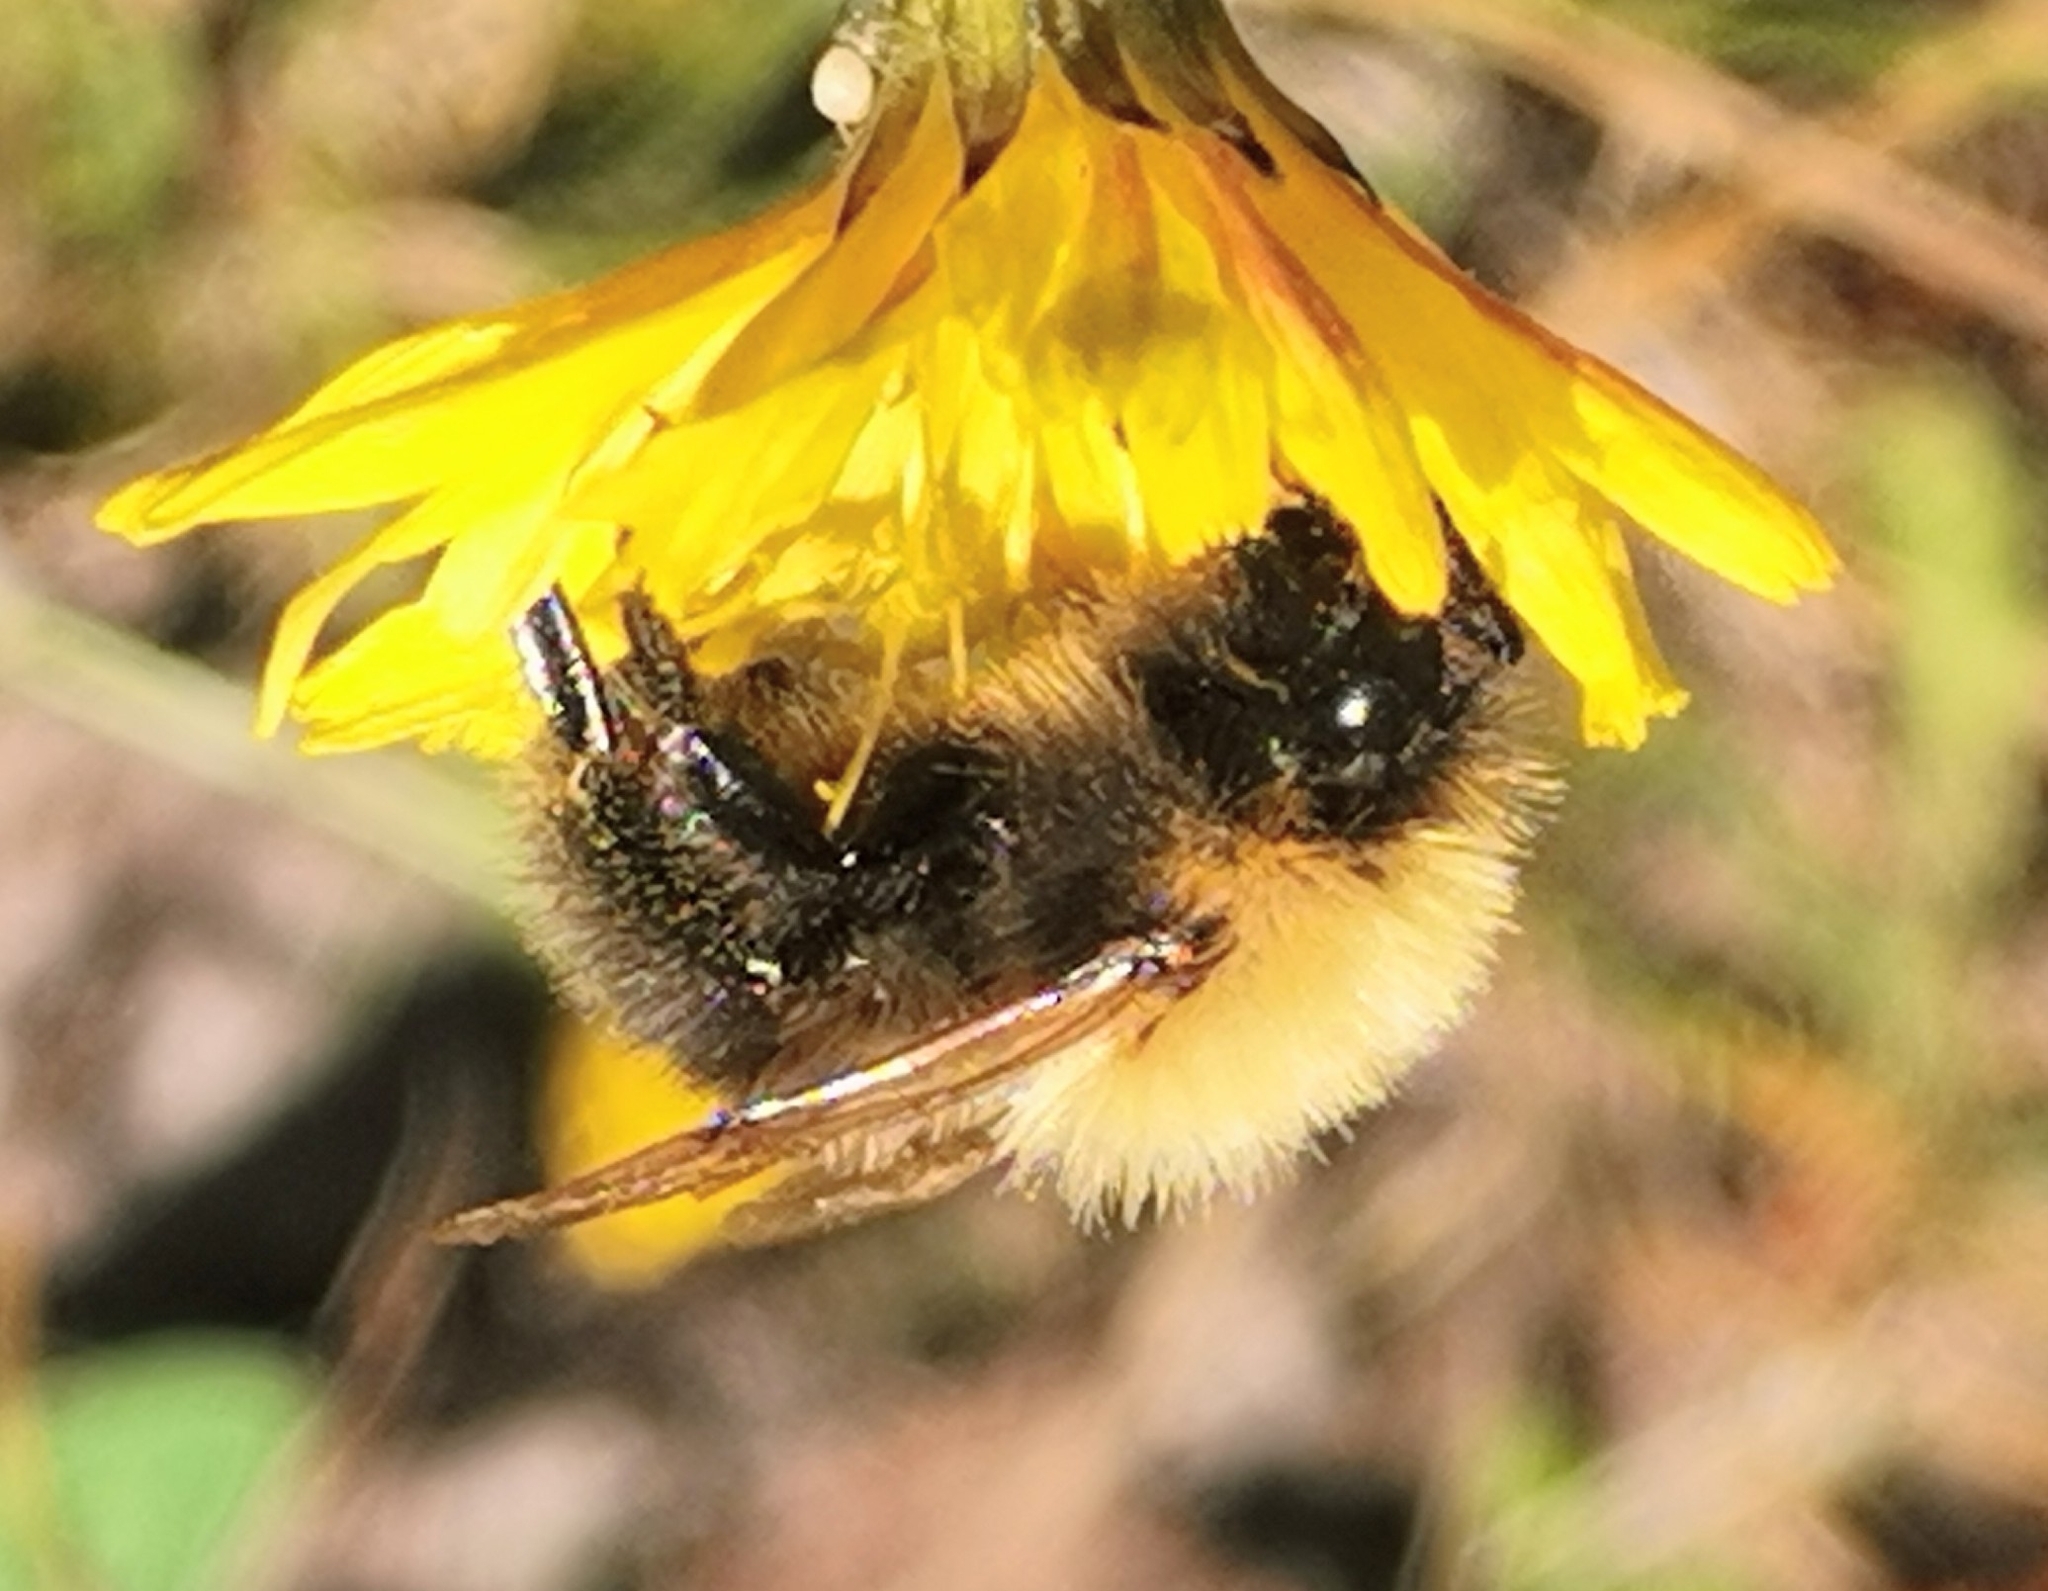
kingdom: Animalia
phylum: Arthropoda
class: Insecta
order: Hymenoptera
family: Apidae
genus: Bombus
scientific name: Bombus pascuorum
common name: Common carder bee
